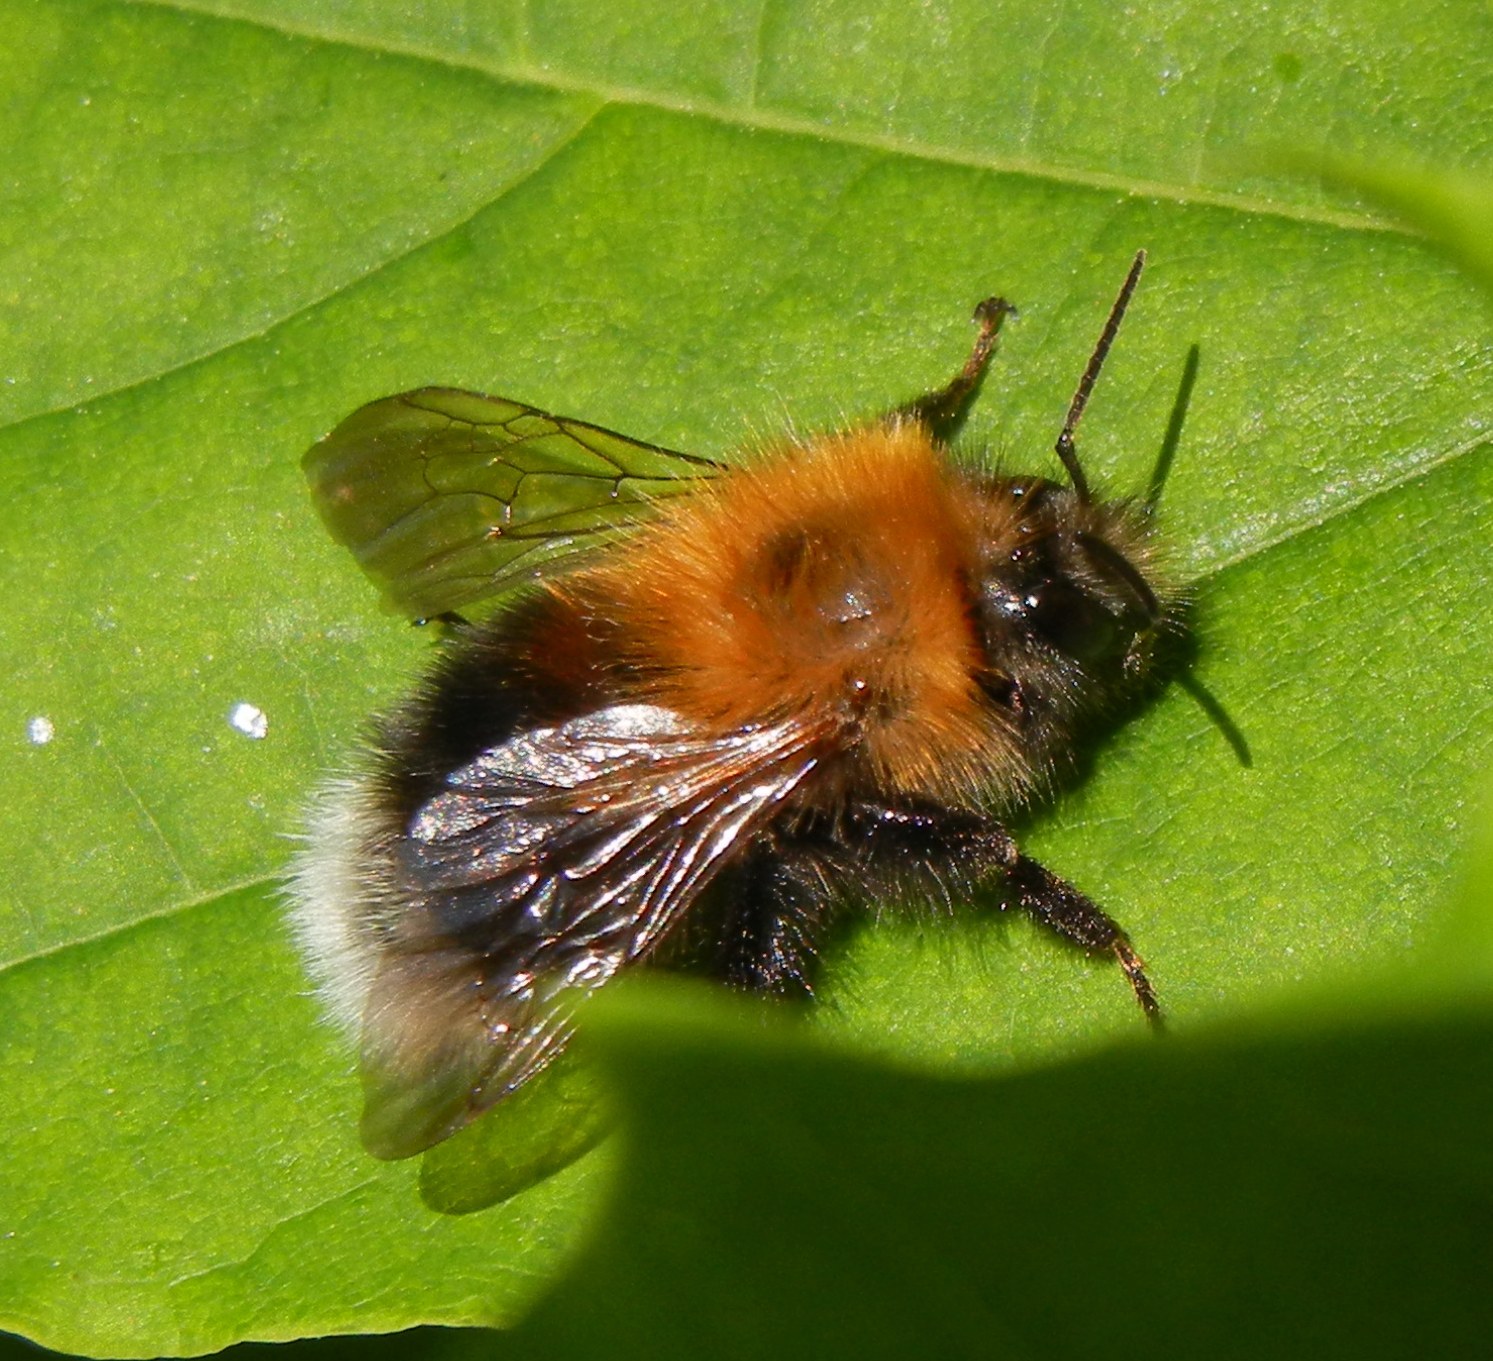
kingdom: Animalia
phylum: Arthropoda
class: Insecta
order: Hymenoptera
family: Apidae
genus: Bombus
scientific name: Bombus hypnorum
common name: New garden bumblebee
